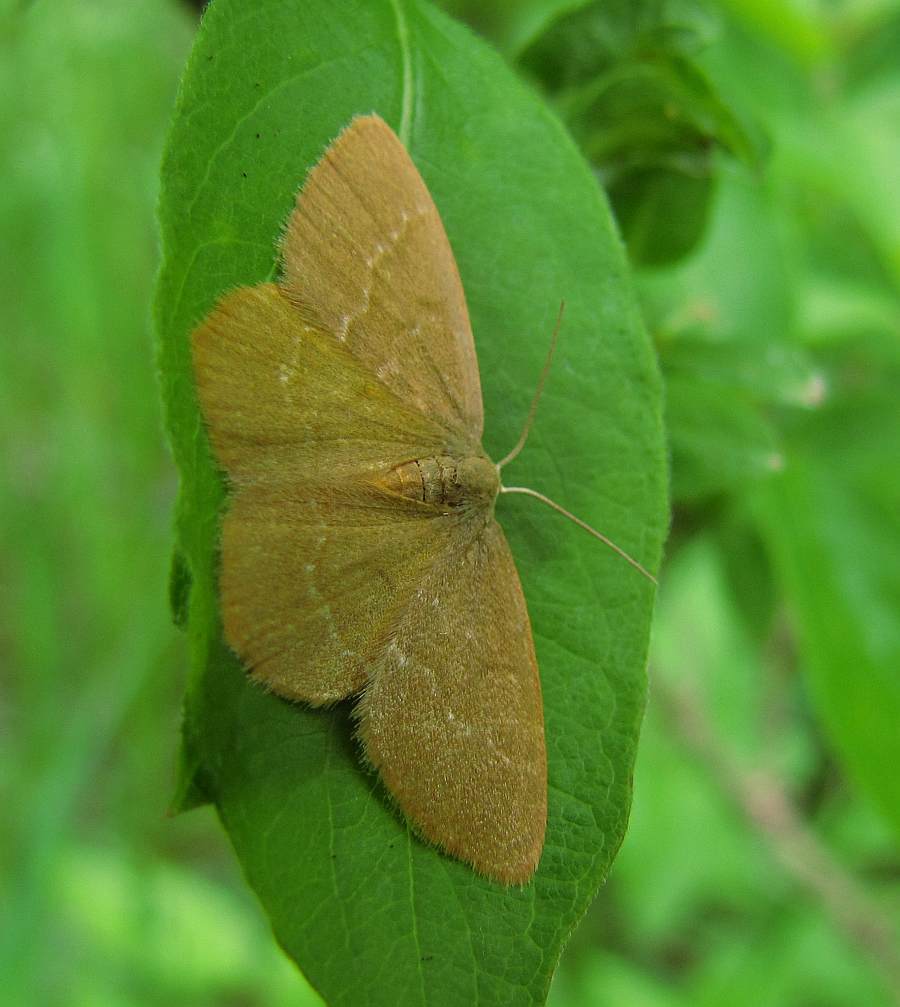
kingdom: Animalia
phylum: Arthropoda
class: Insecta
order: Lepidoptera
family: Geometridae
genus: Thalera
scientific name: Thalera pistasciaria
